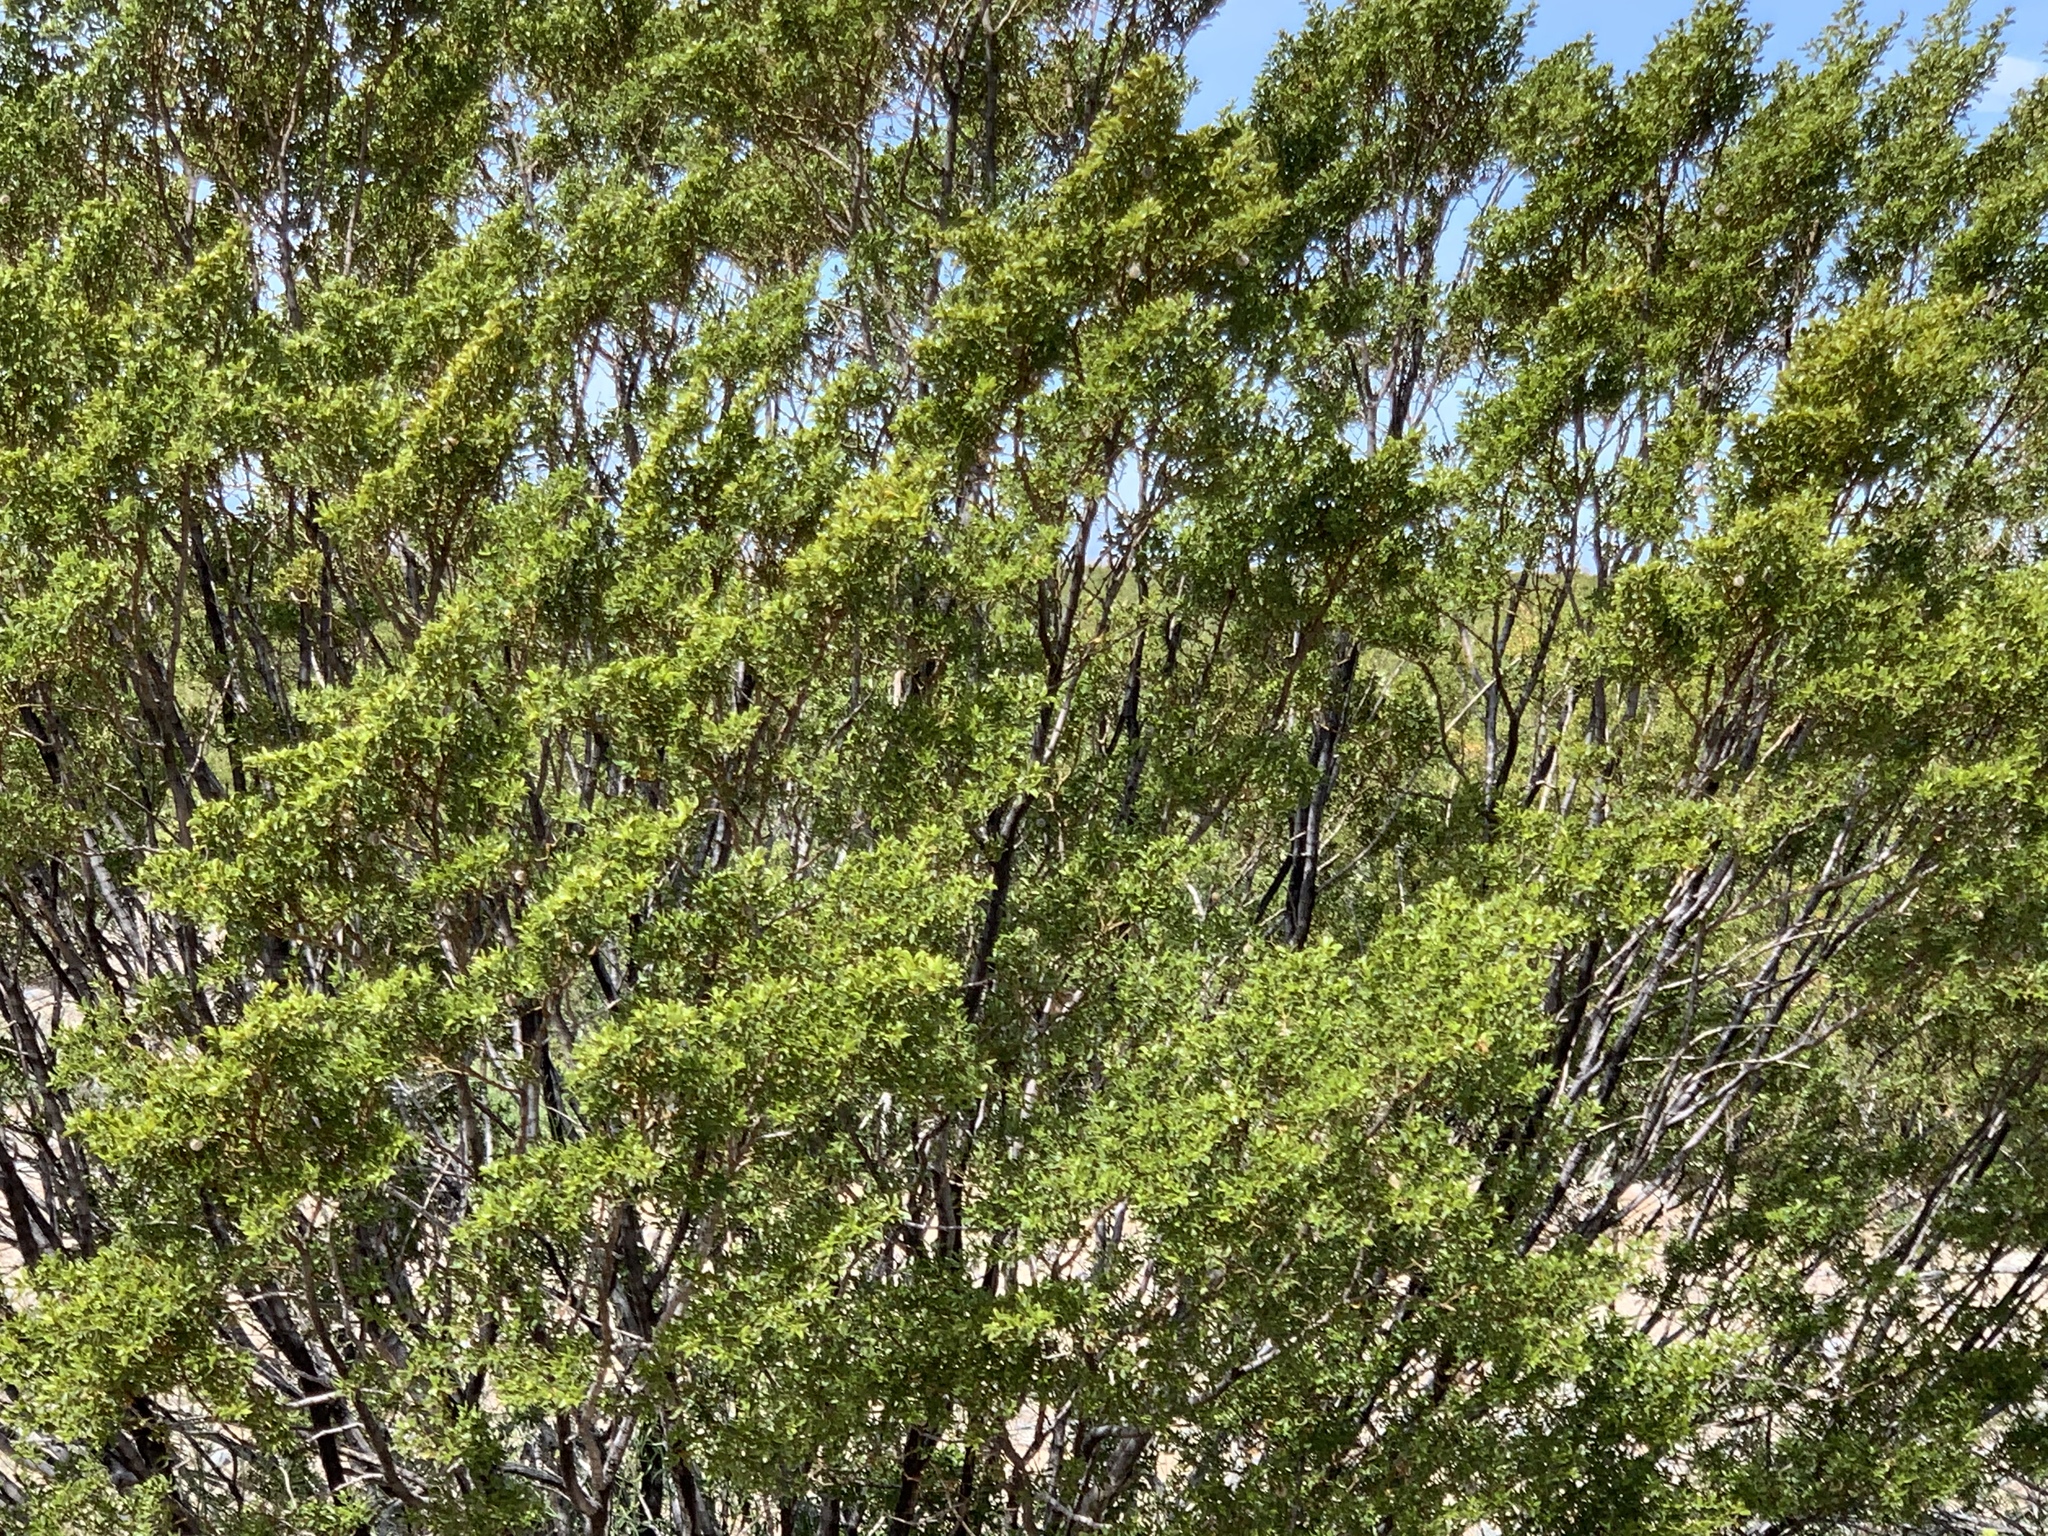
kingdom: Plantae
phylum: Tracheophyta
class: Magnoliopsida
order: Zygophyllales
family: Zygophyllaceae
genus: Larrea
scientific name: Larrea tridentata
